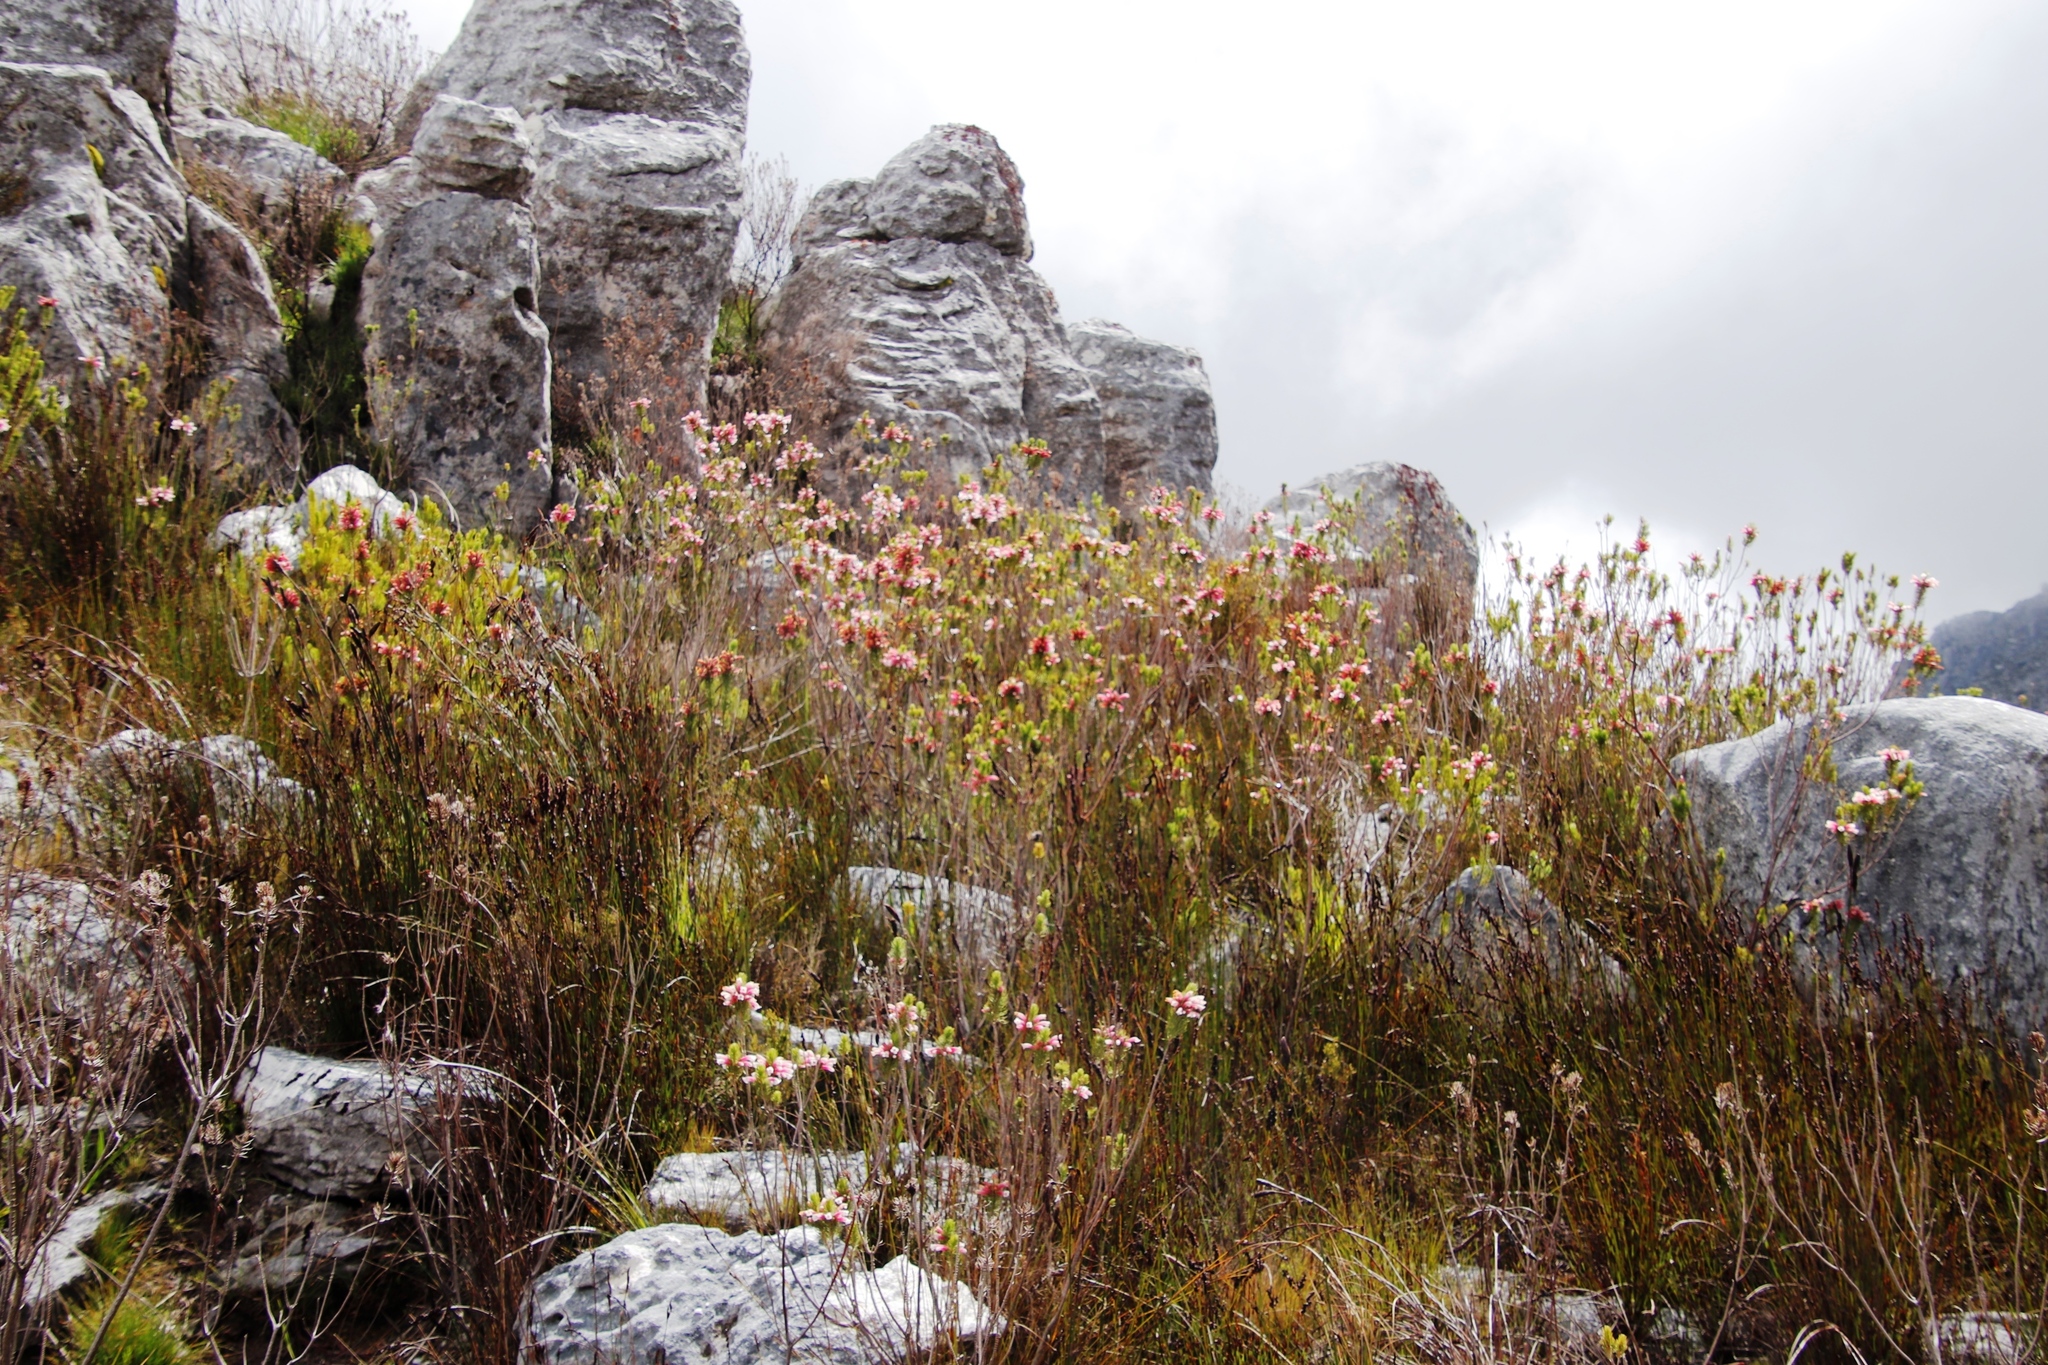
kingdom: Plantae
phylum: Tracheophyta
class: Magnoliopsida
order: Ericales
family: Ericaceae
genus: Erica
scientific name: Erica viscaria
